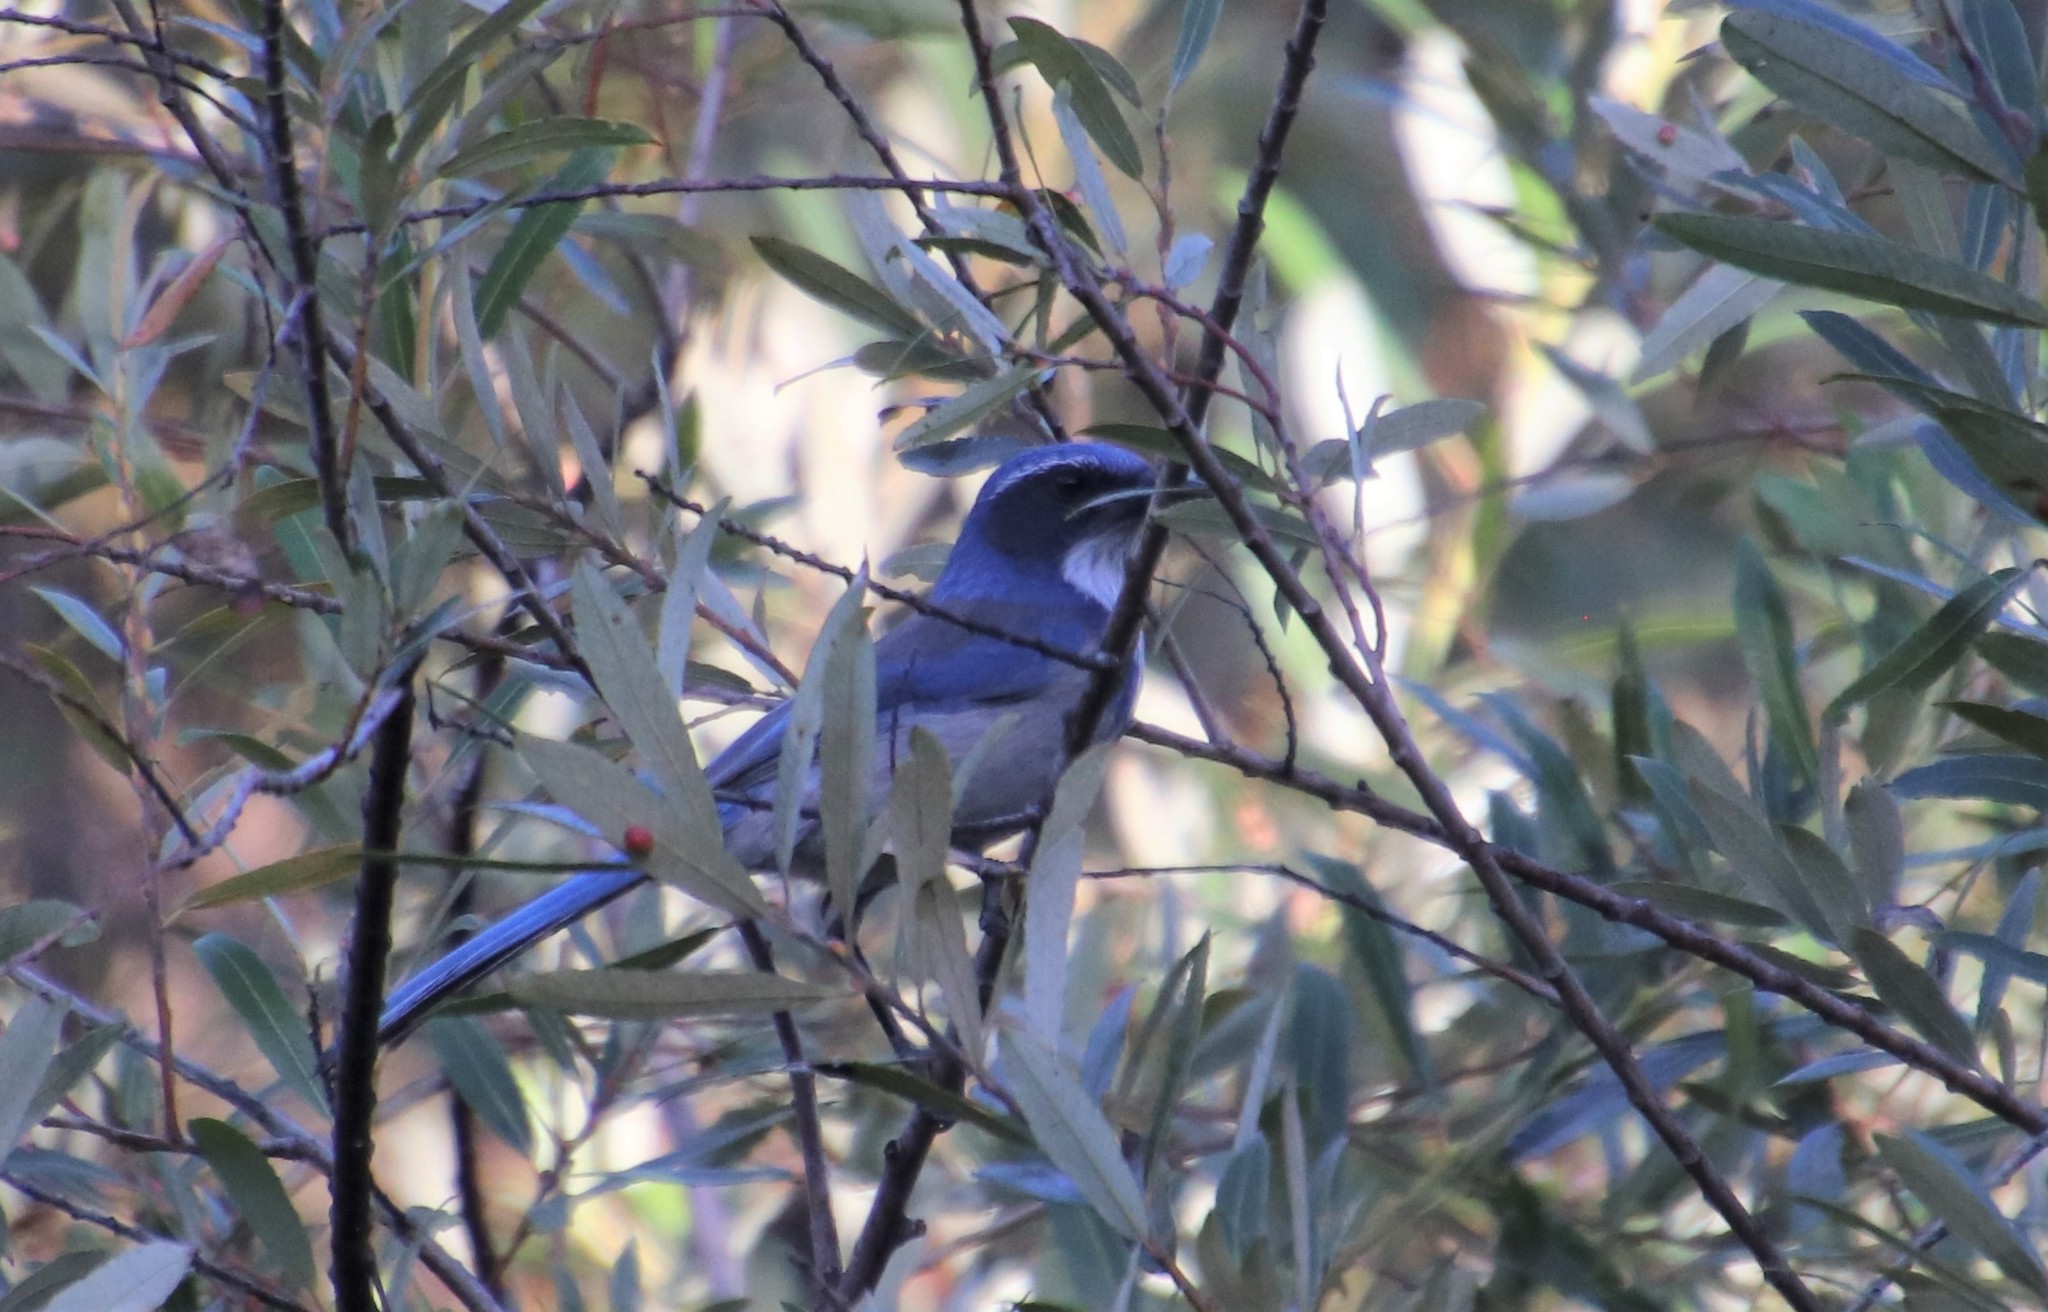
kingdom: Animalia
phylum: Chordata
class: Aves
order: Passeriformes
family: Corvidae
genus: Aphelocoma
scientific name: Aphelocoma californica
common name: California scrub-jay
